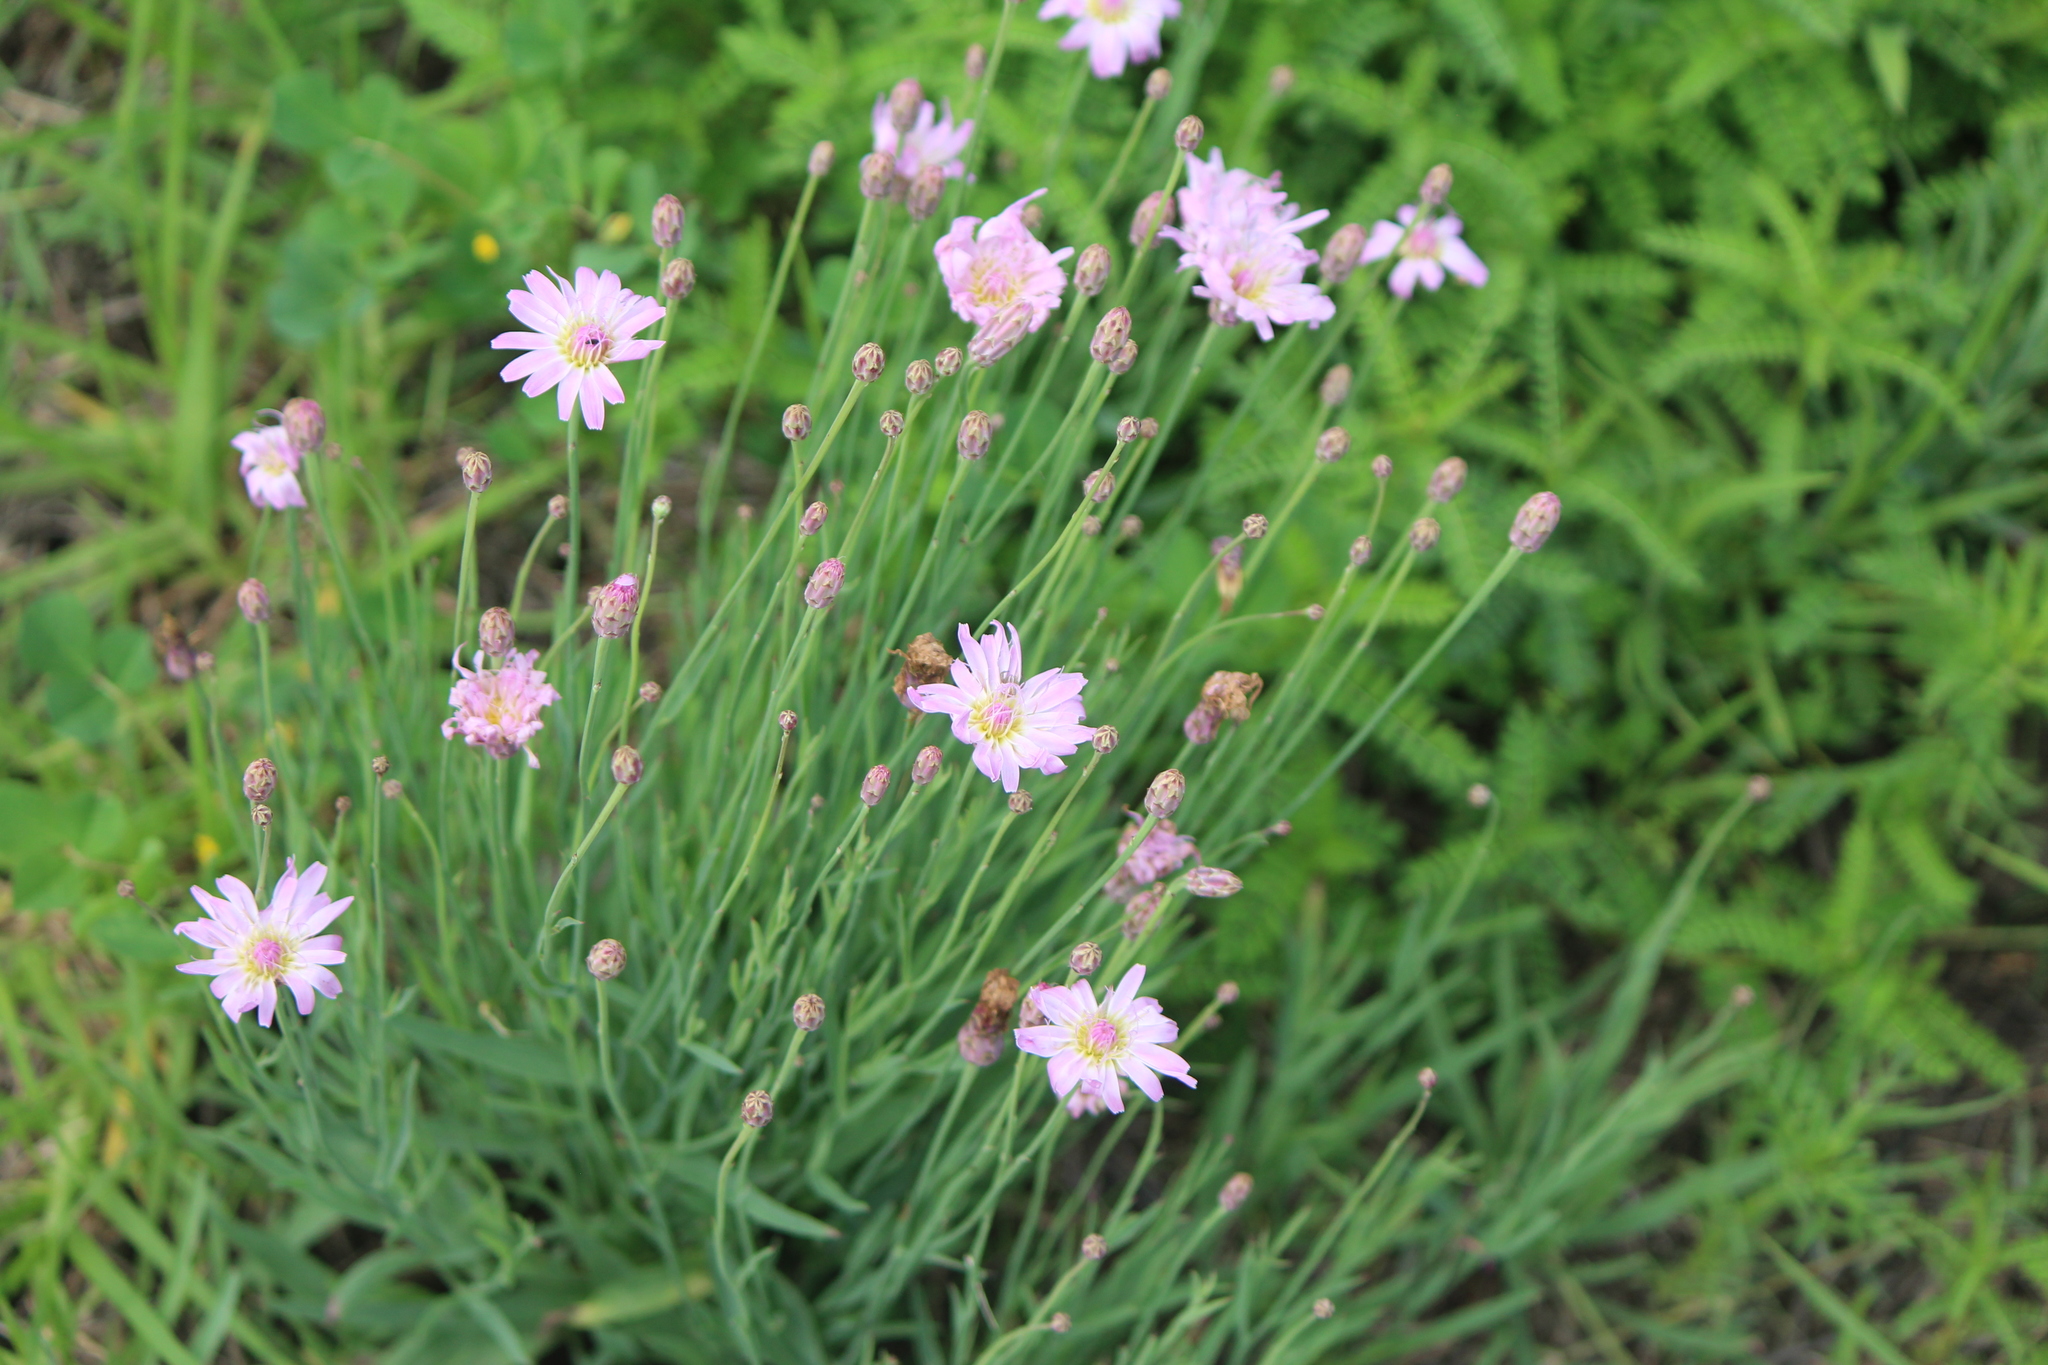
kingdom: Plantae
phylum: Tracheophyta
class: Magnoliopsida
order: Asterales
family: Asteraceae
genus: Pinaropappus
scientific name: Pinaropappus roseus
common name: Rock-lettuce
